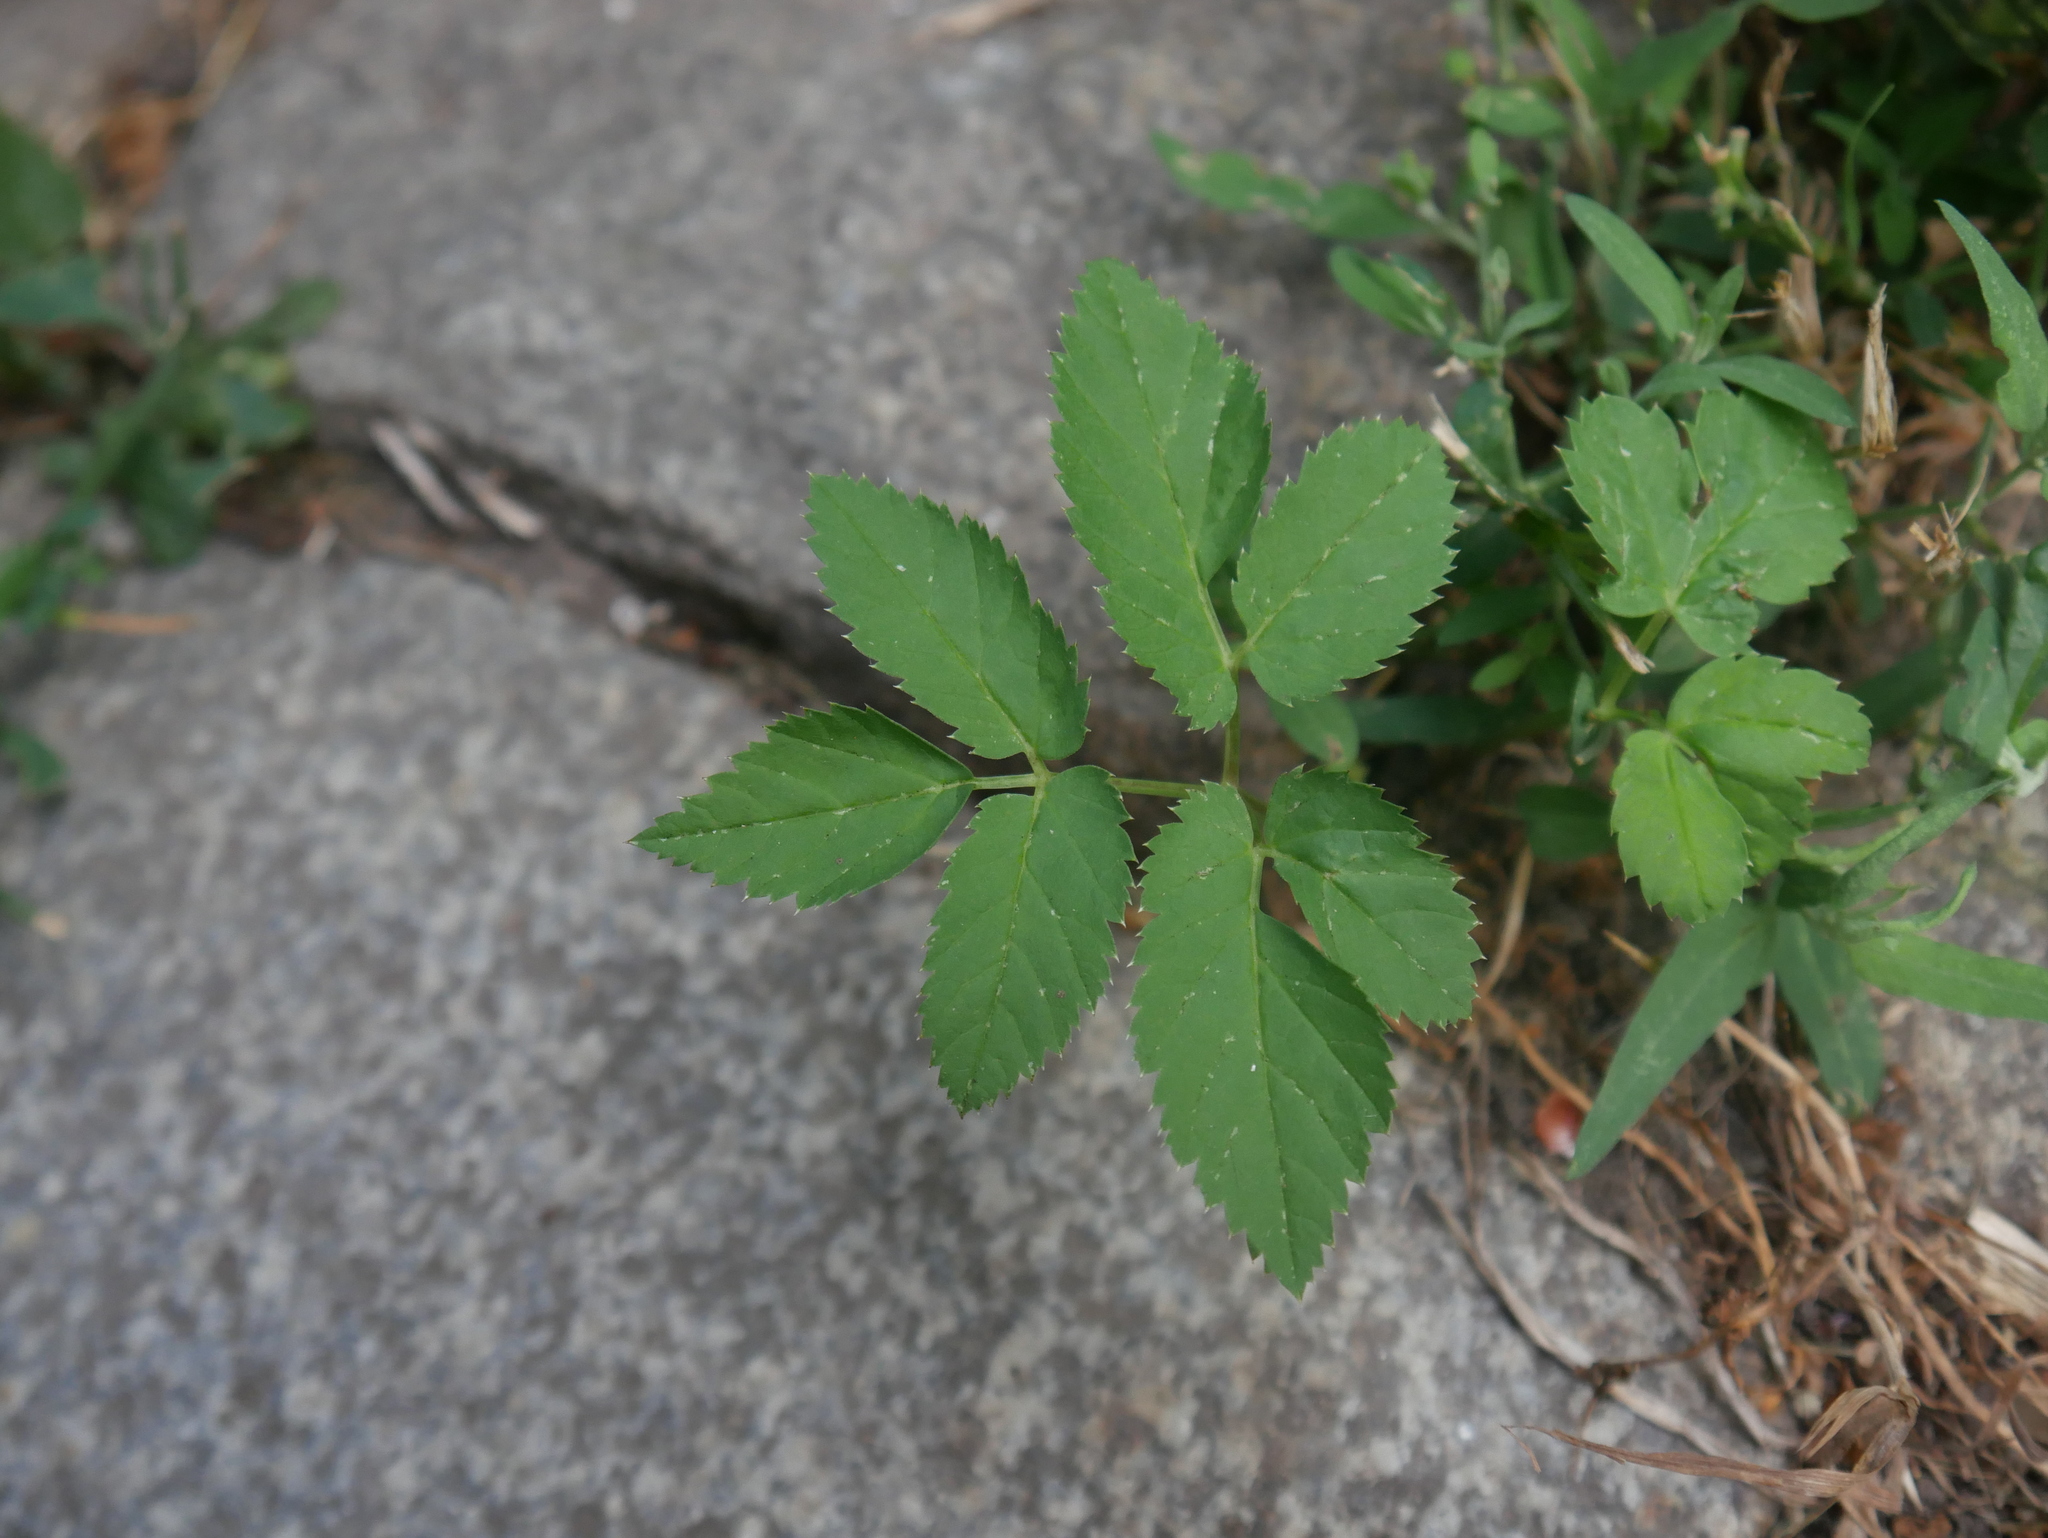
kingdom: Plantae
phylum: Tracheophyta
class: Magnoliopsida
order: Apiales
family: Apiaceae
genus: Aegopodium
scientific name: Aegopodium podagraria
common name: Ground-elder
